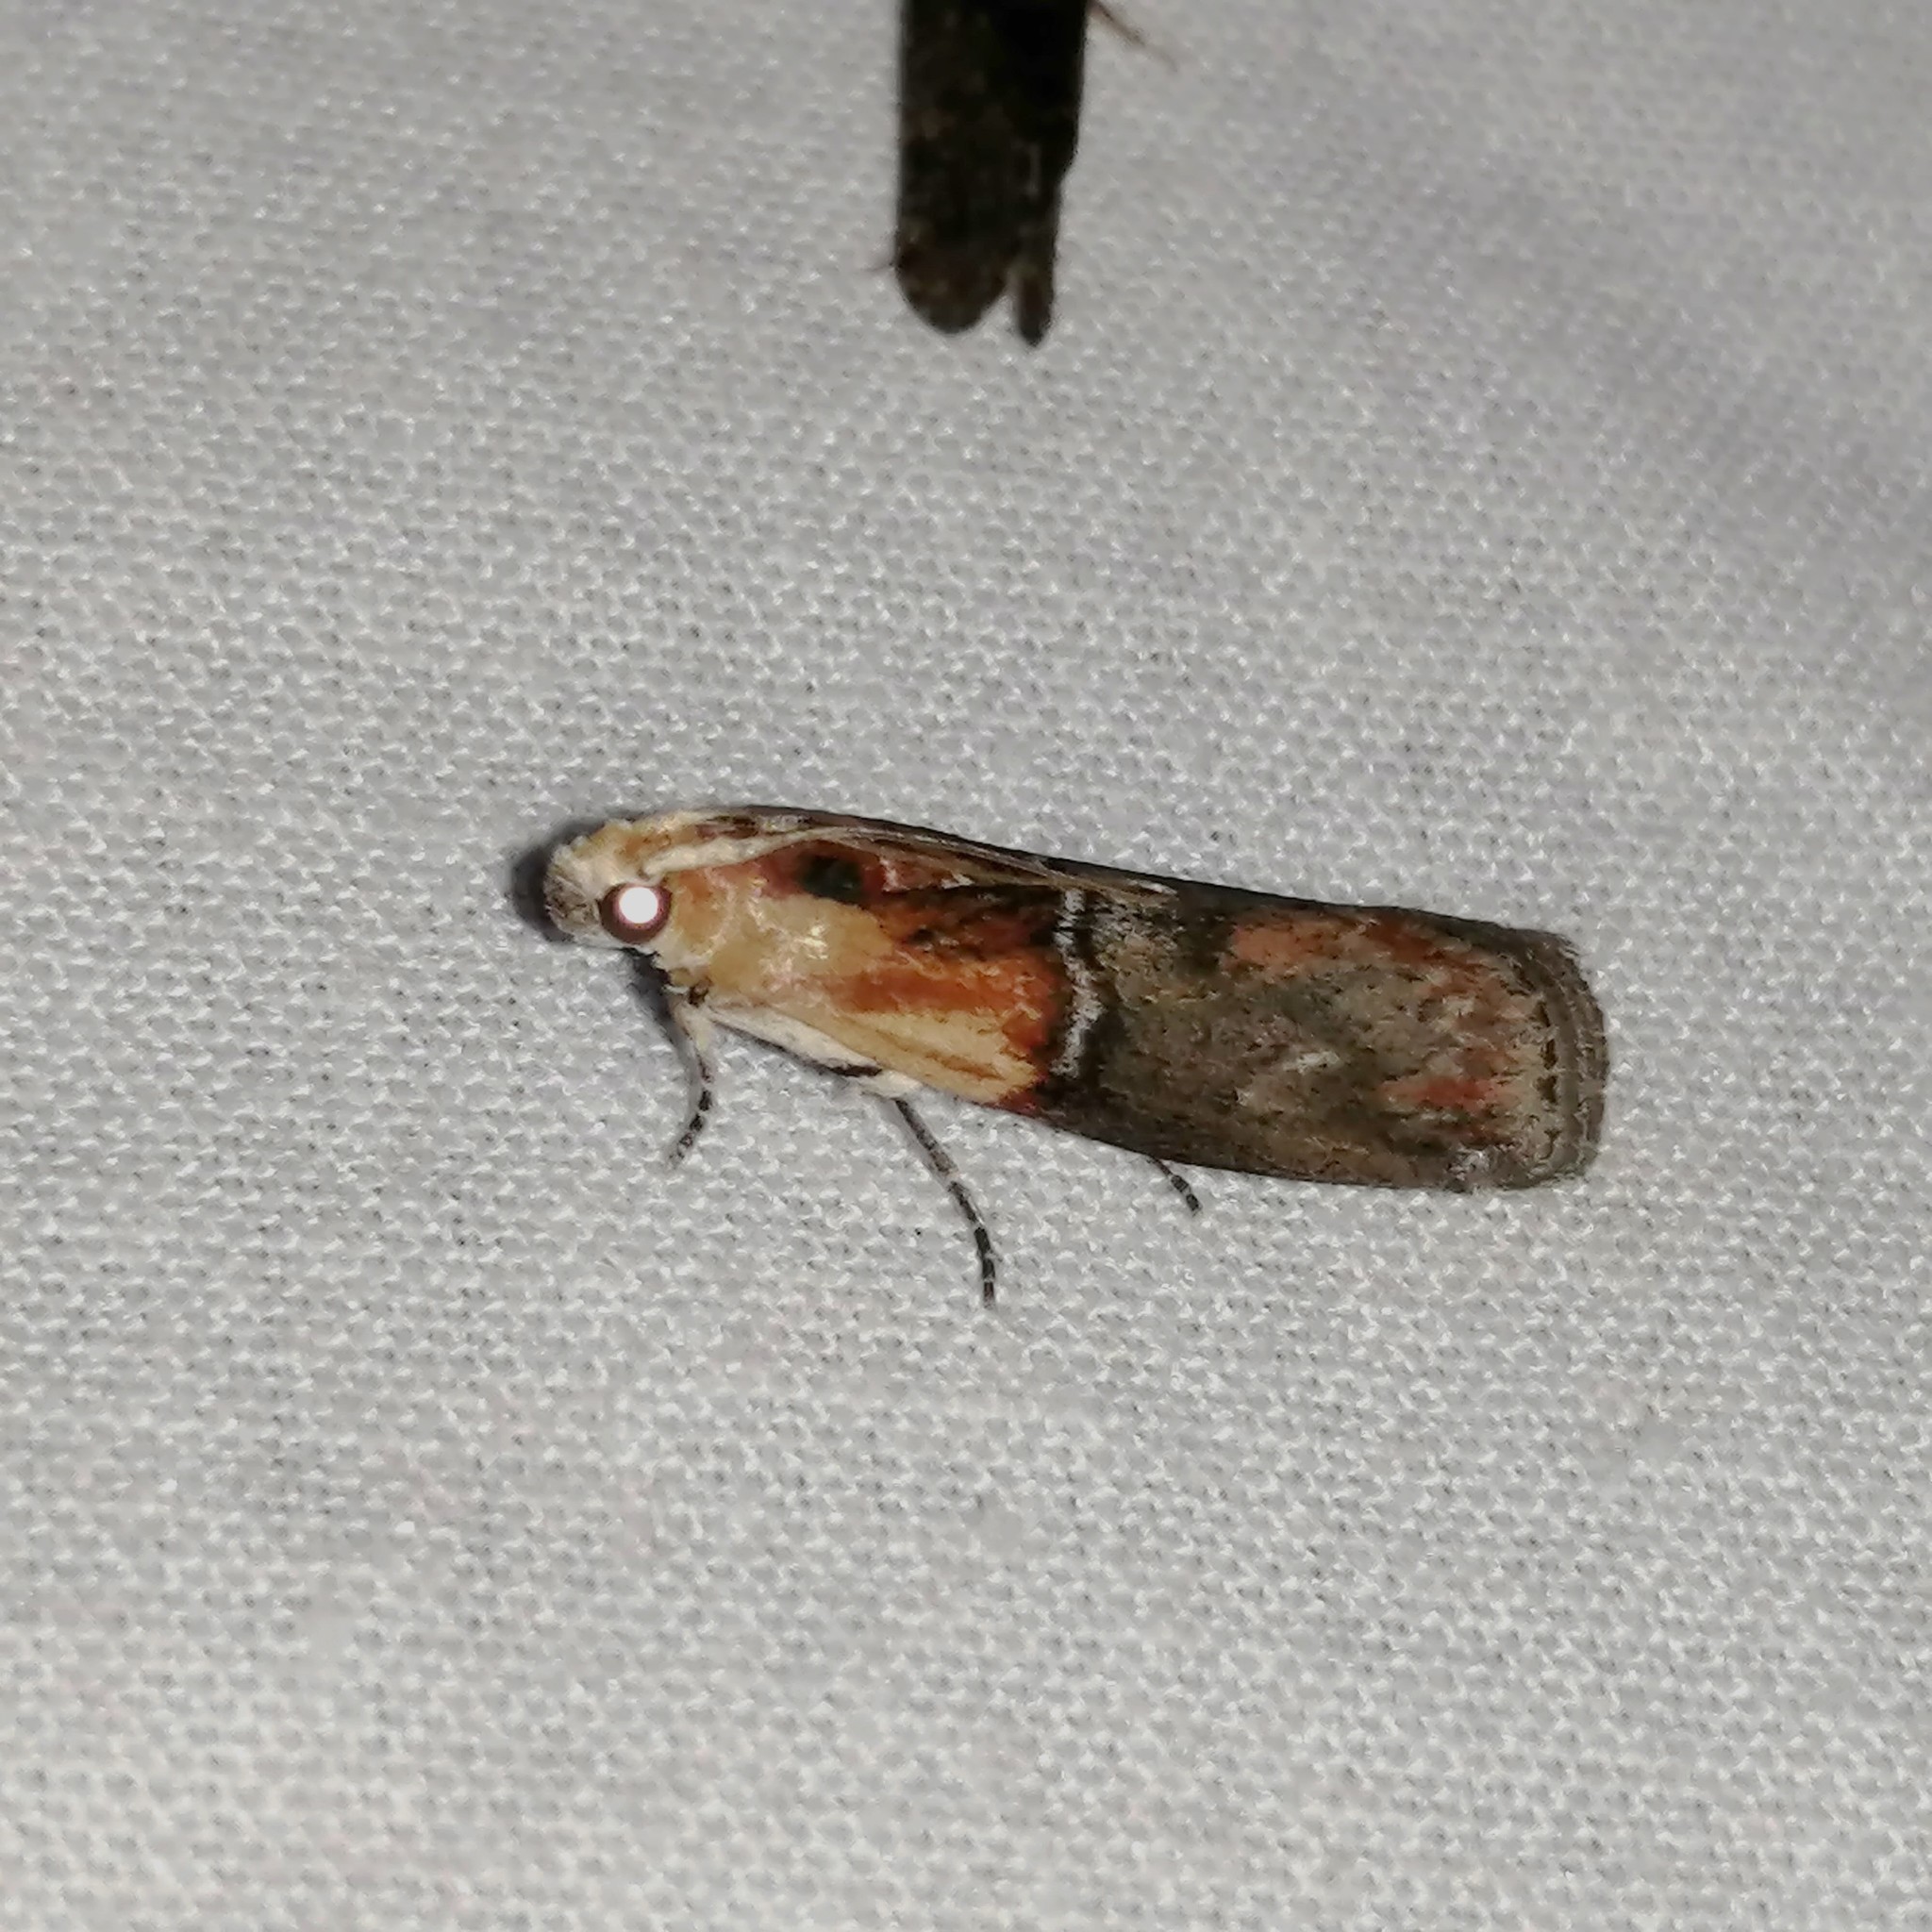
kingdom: Animalia
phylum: Arthropoda
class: Insecta
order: Lepidoptera
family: Pyralidae
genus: Sciota
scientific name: Sciota basilaris
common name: Yellow-shouldered leafroller
